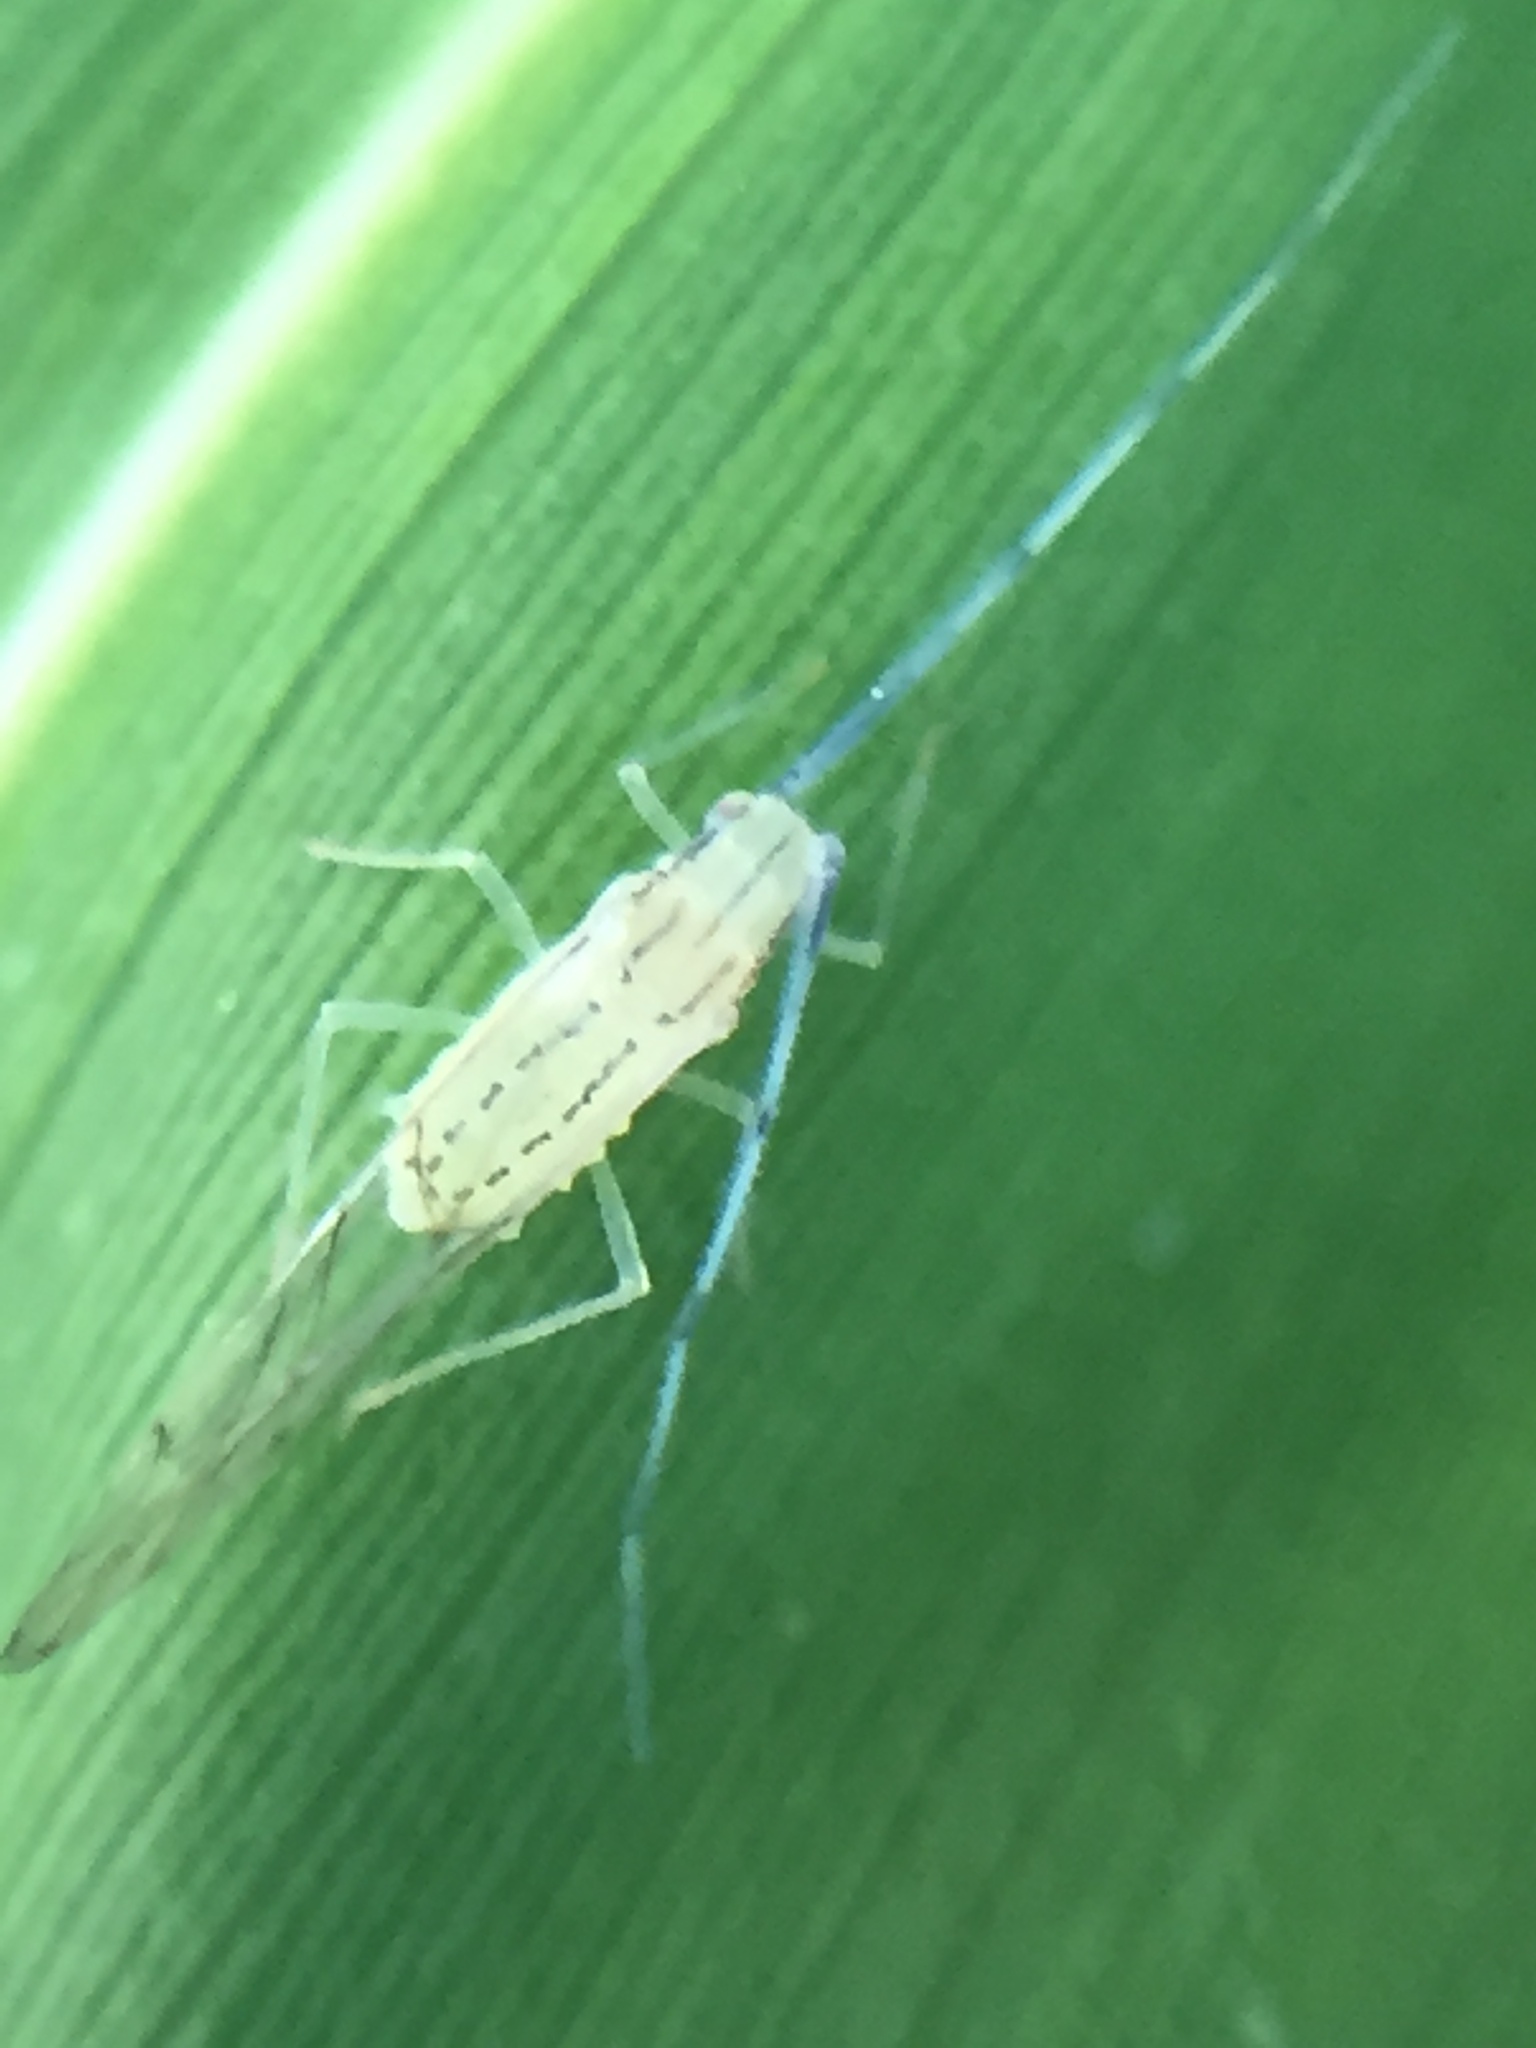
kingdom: Animalia
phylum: Arthropoda
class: Insecta
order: Hemiptera
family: Aphididae
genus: Takecallis
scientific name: Takecallis arundinariae
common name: Black-tailed bamboo aphid
